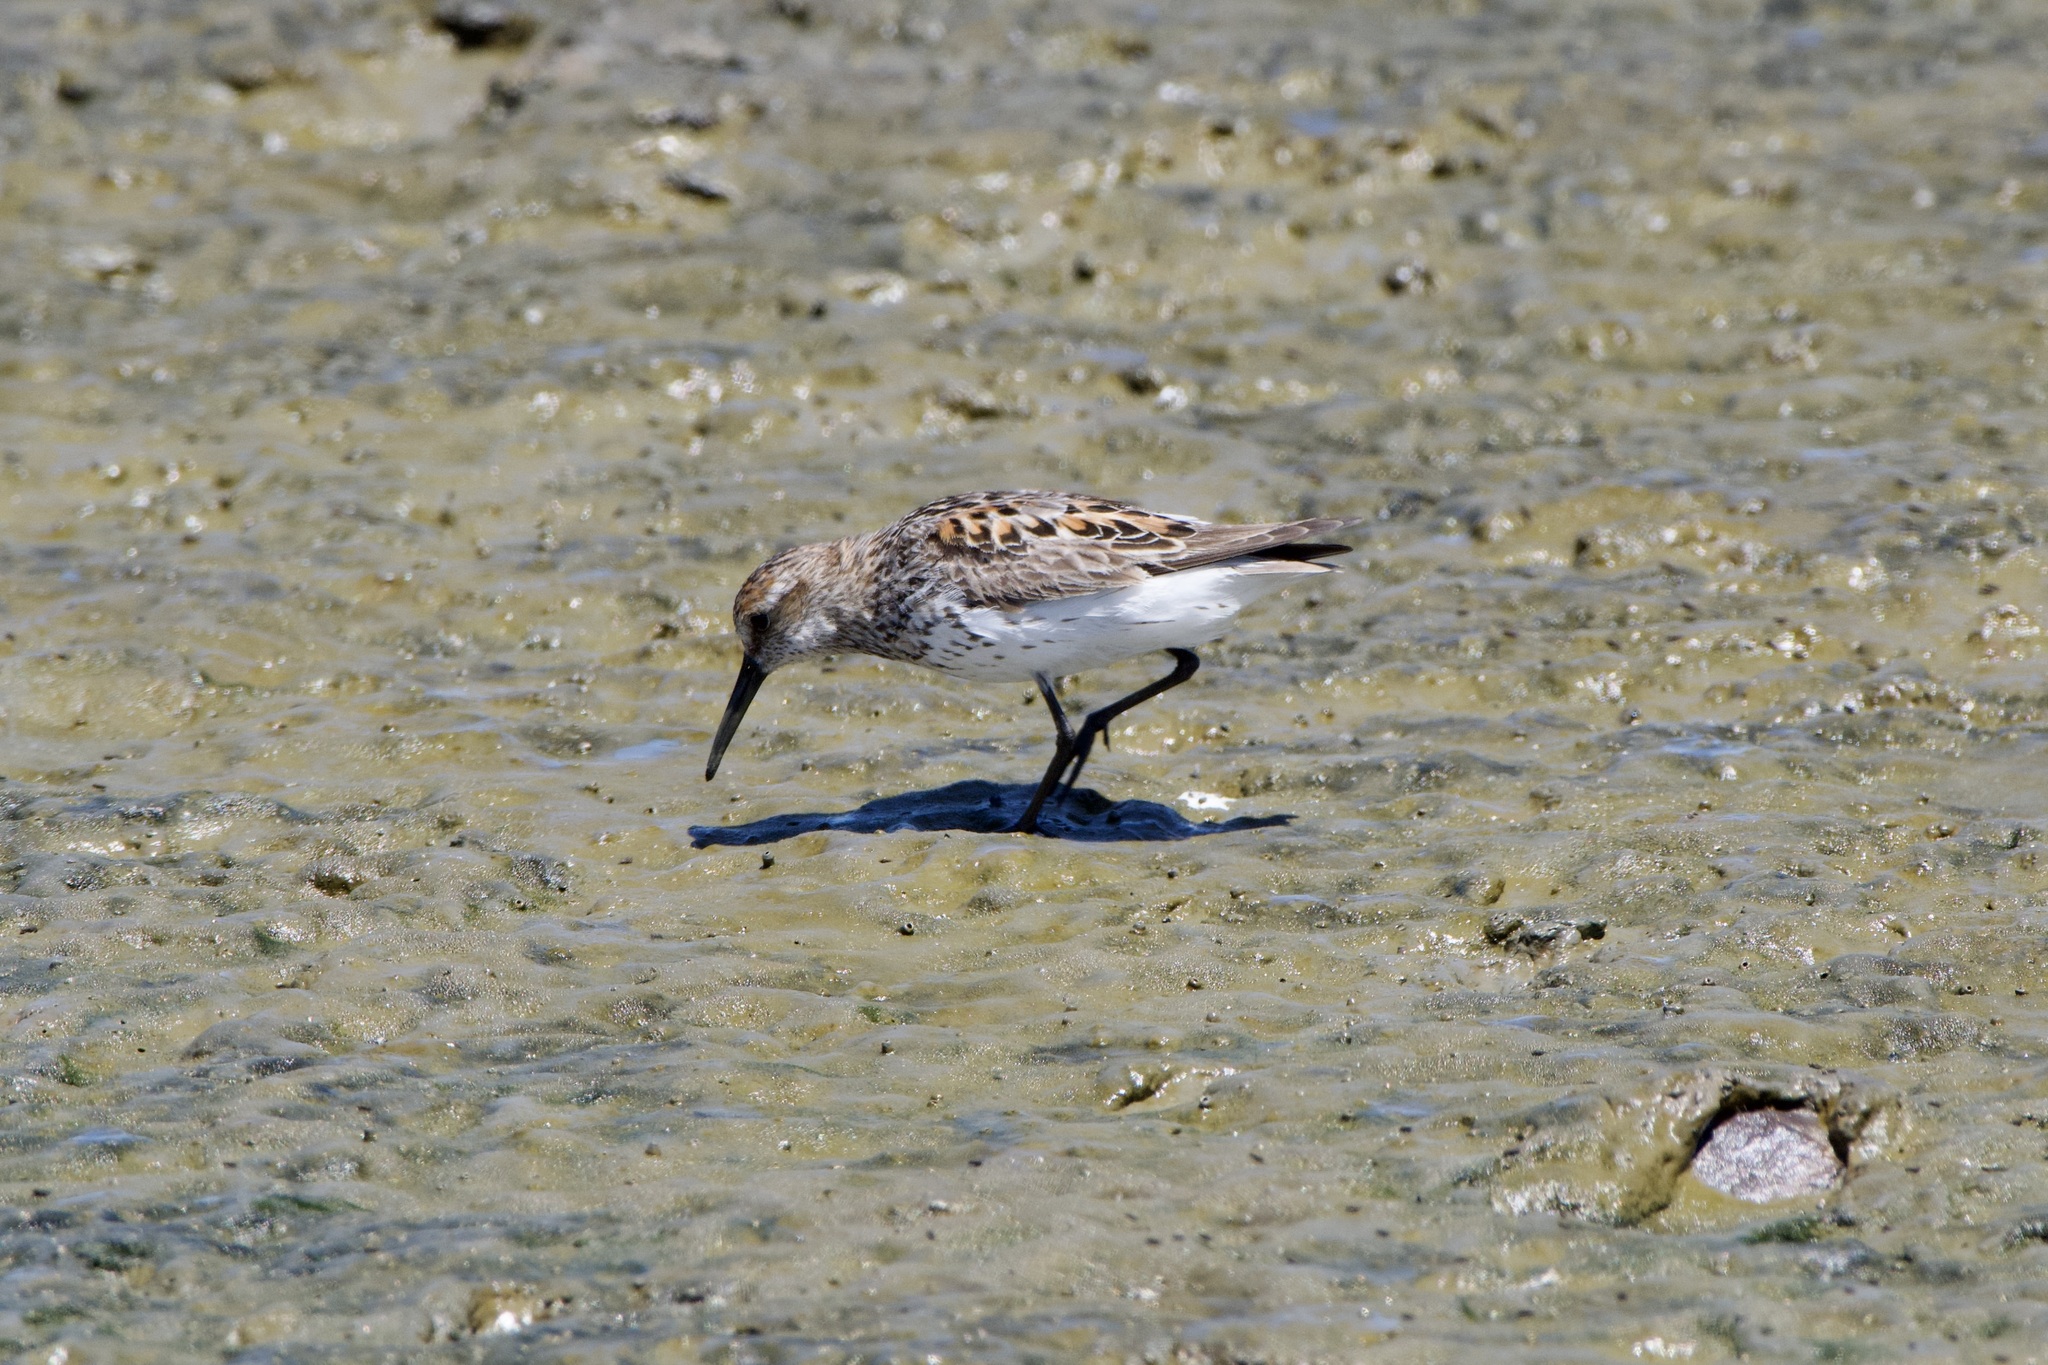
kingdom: Animalia
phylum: Chordata
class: Aves
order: Charadriiformes
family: Scolopacidae
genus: Calidris
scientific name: Calidris mauri
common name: Western sandpiper
